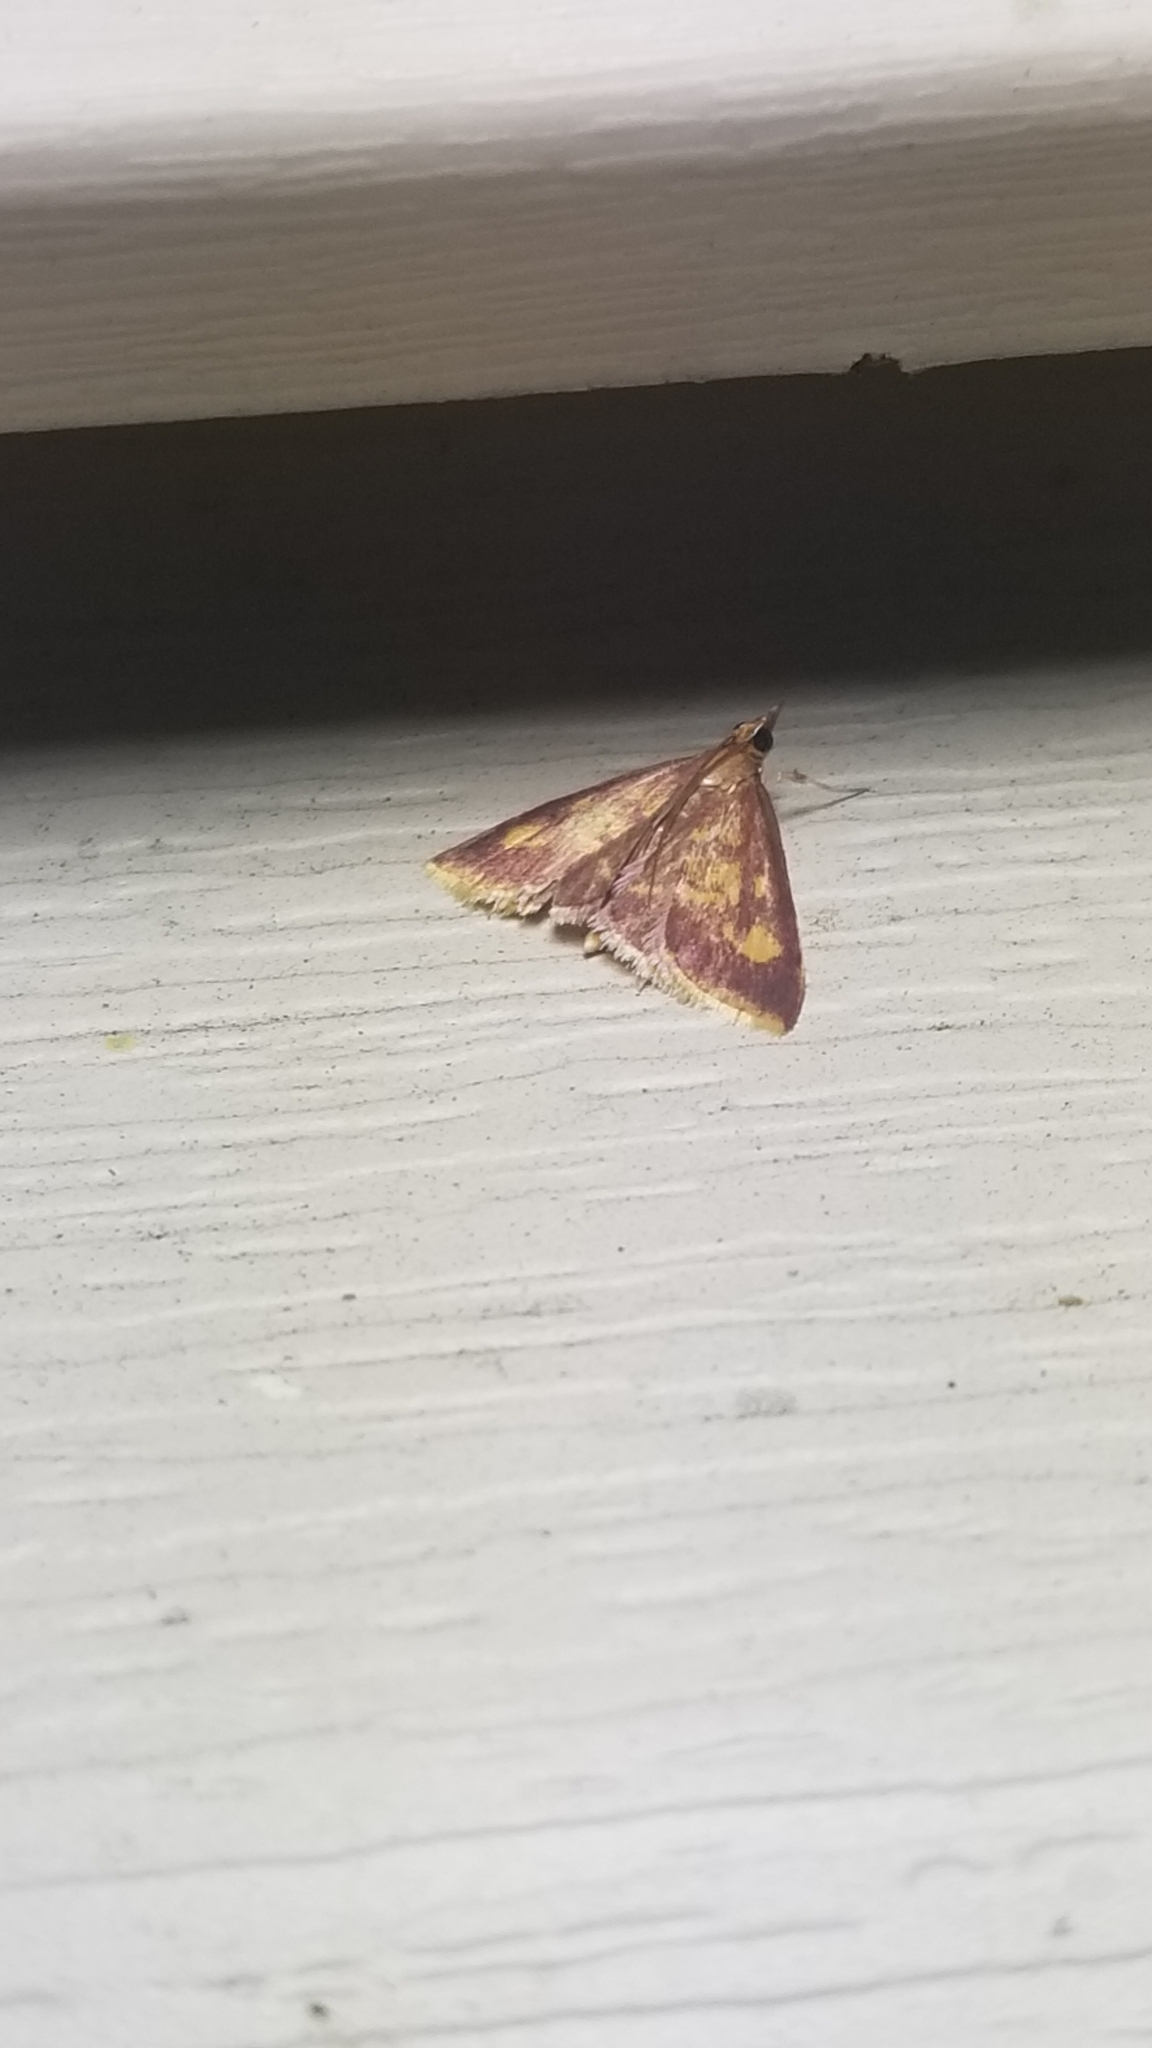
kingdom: Animalia
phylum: Arthropoda
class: Insecta
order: Lepidoptera
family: Crambidae
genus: Pyrausta
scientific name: Pyrausta acrionalis
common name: Mint-loving pyrausta moth
